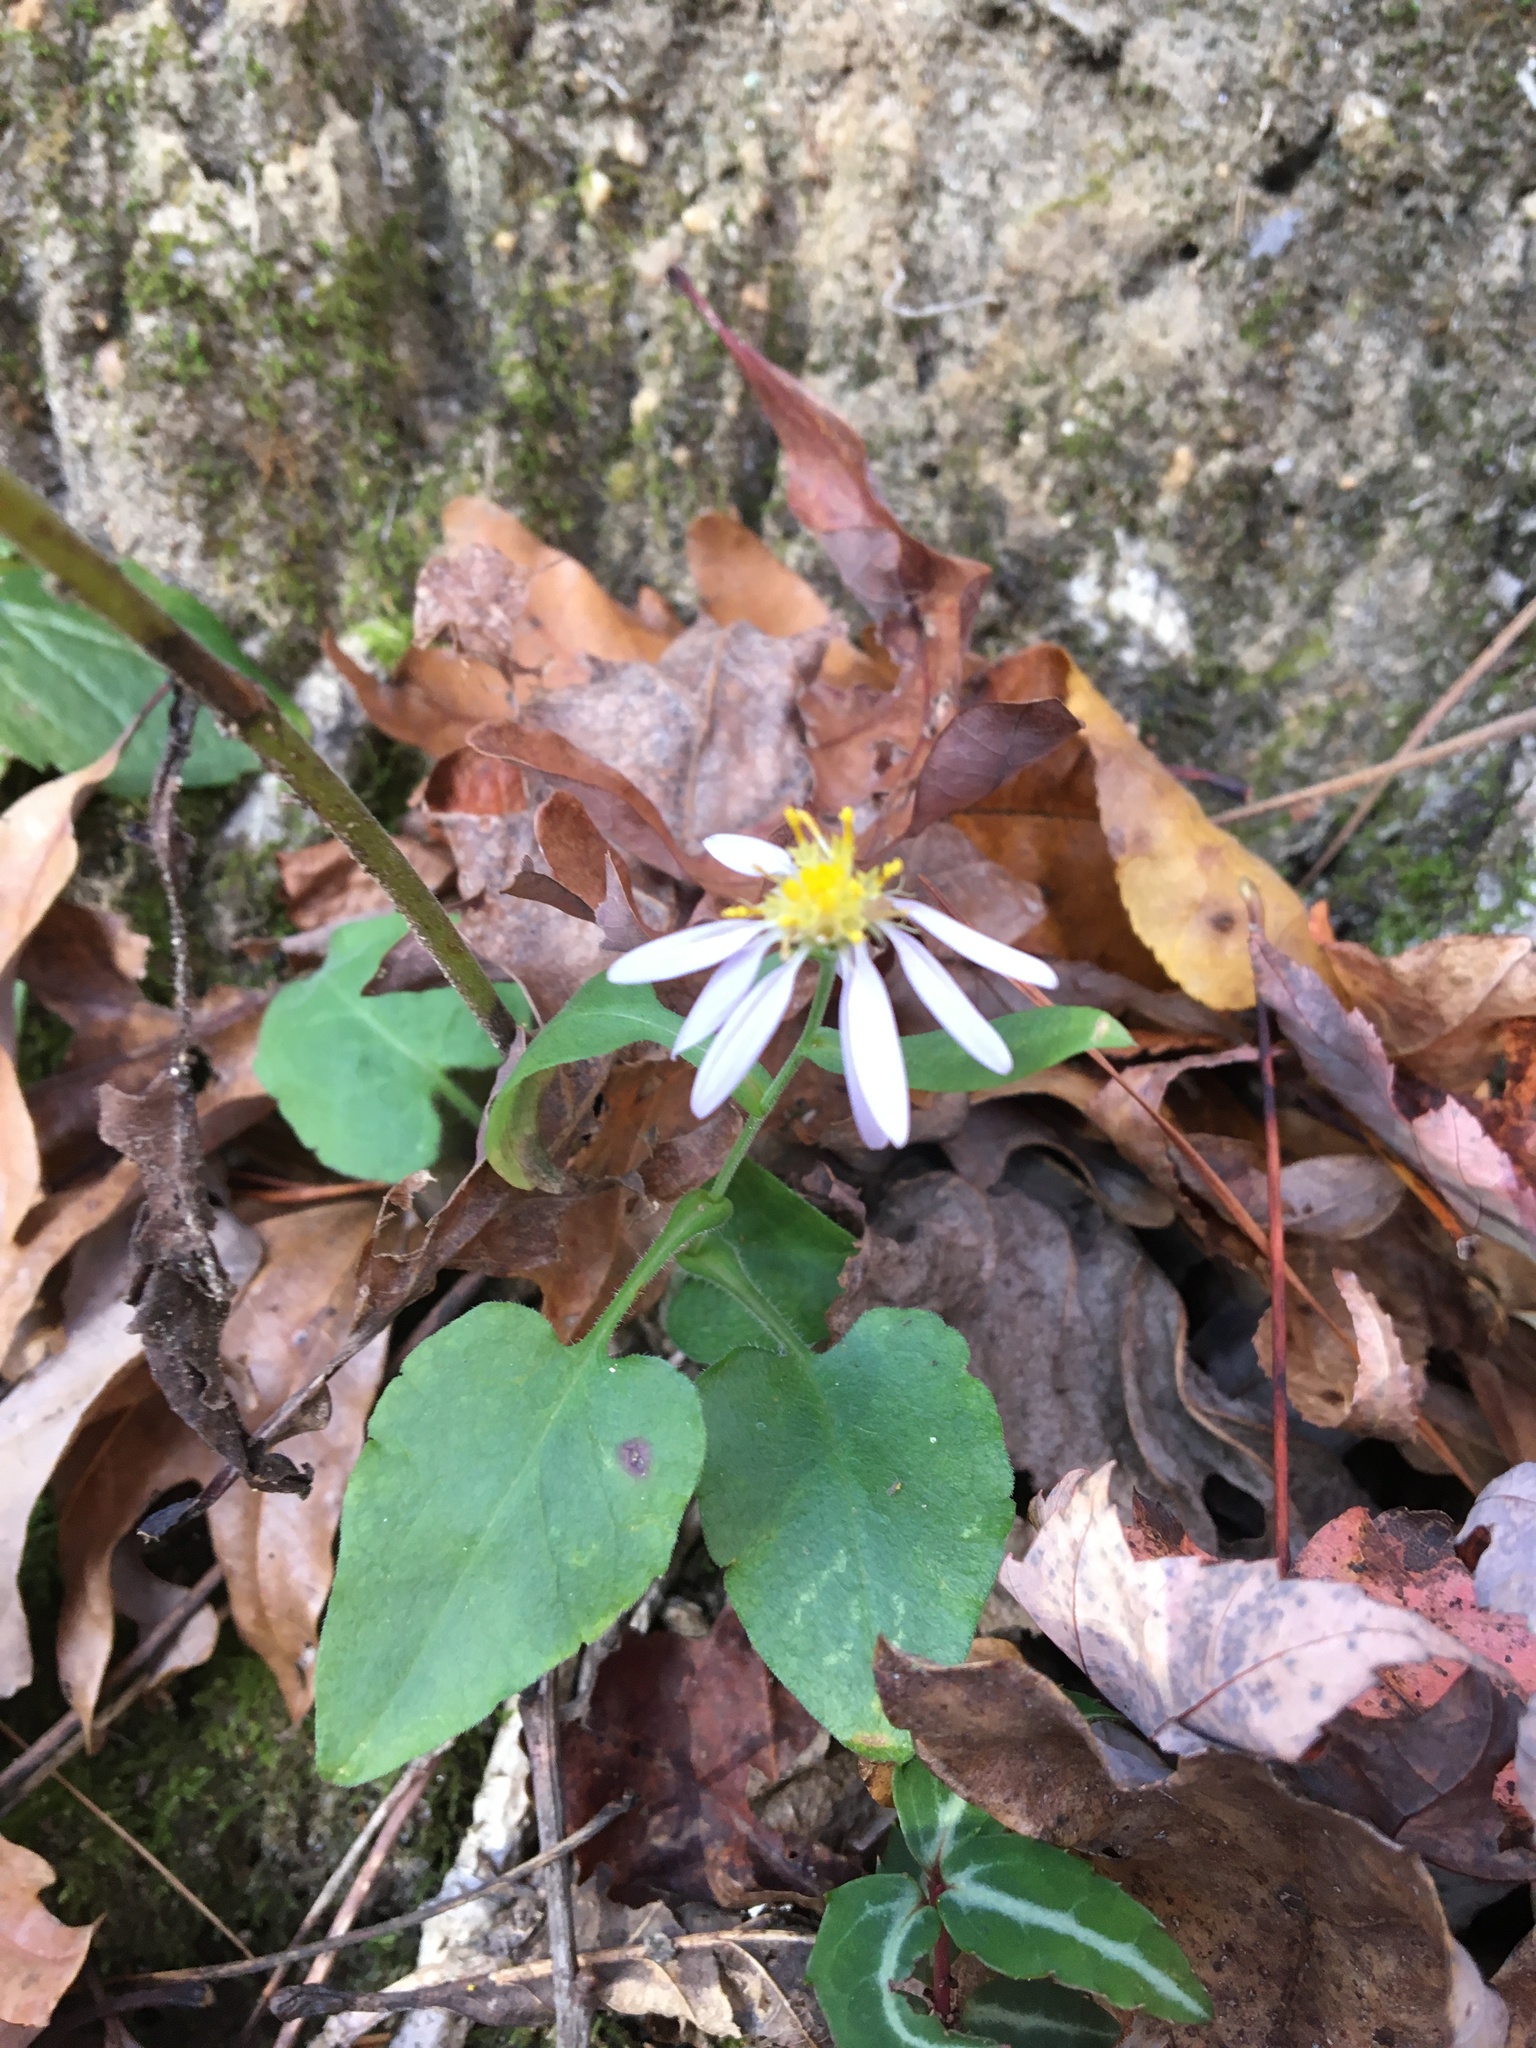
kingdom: Plantae
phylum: Tracheophyta
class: Magnoliopsida
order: Asterales
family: Asteraceae
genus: Symphyotrichum
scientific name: Symphyotrichum undulatum
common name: Clasping heart-leaf aster
